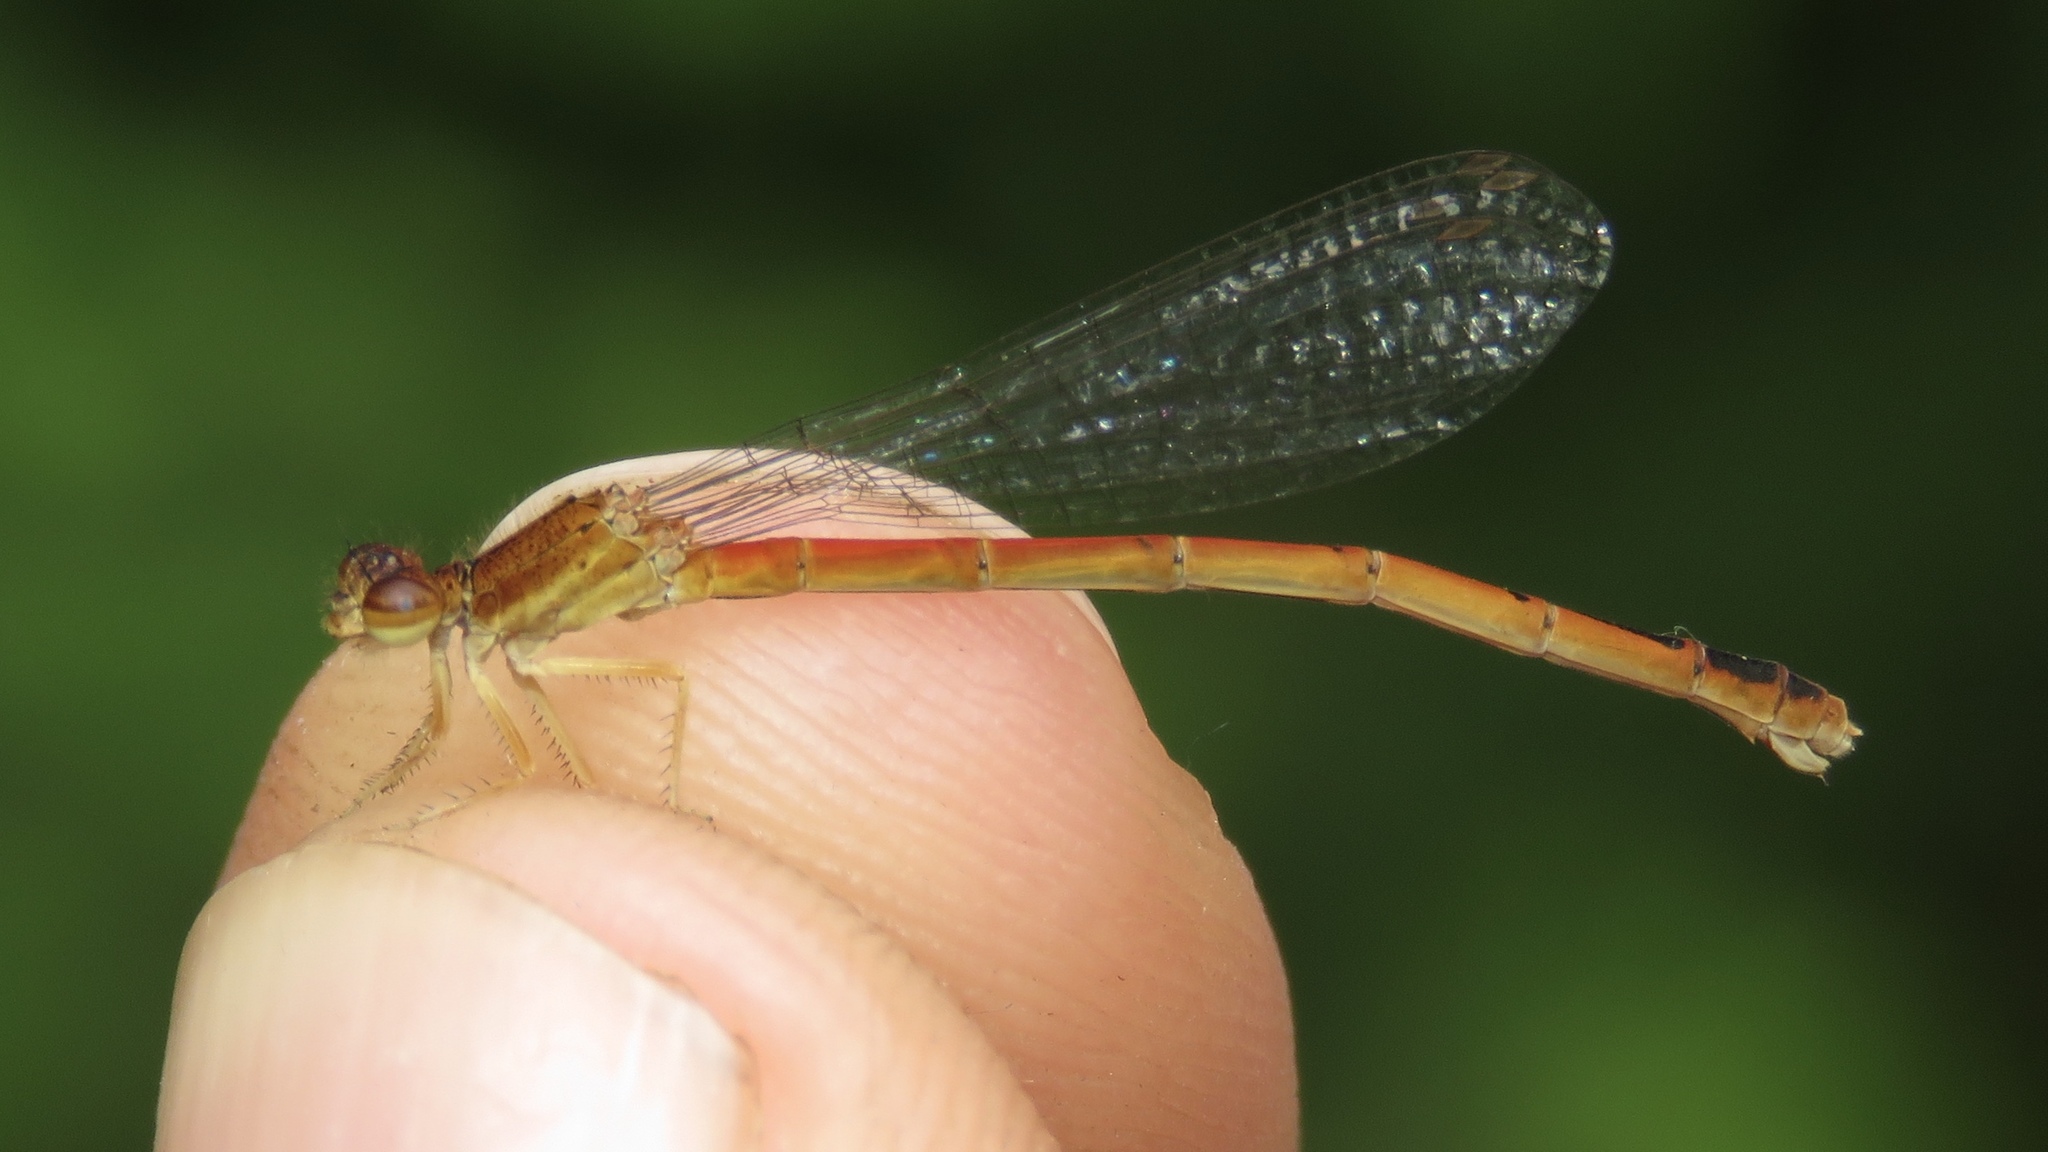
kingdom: Animalia
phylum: Arthropoda
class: Insecta
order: Odonata
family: Coenagrionidae
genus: Amphiagrion
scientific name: Amphiagrion saucium
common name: Eastern red damsel
